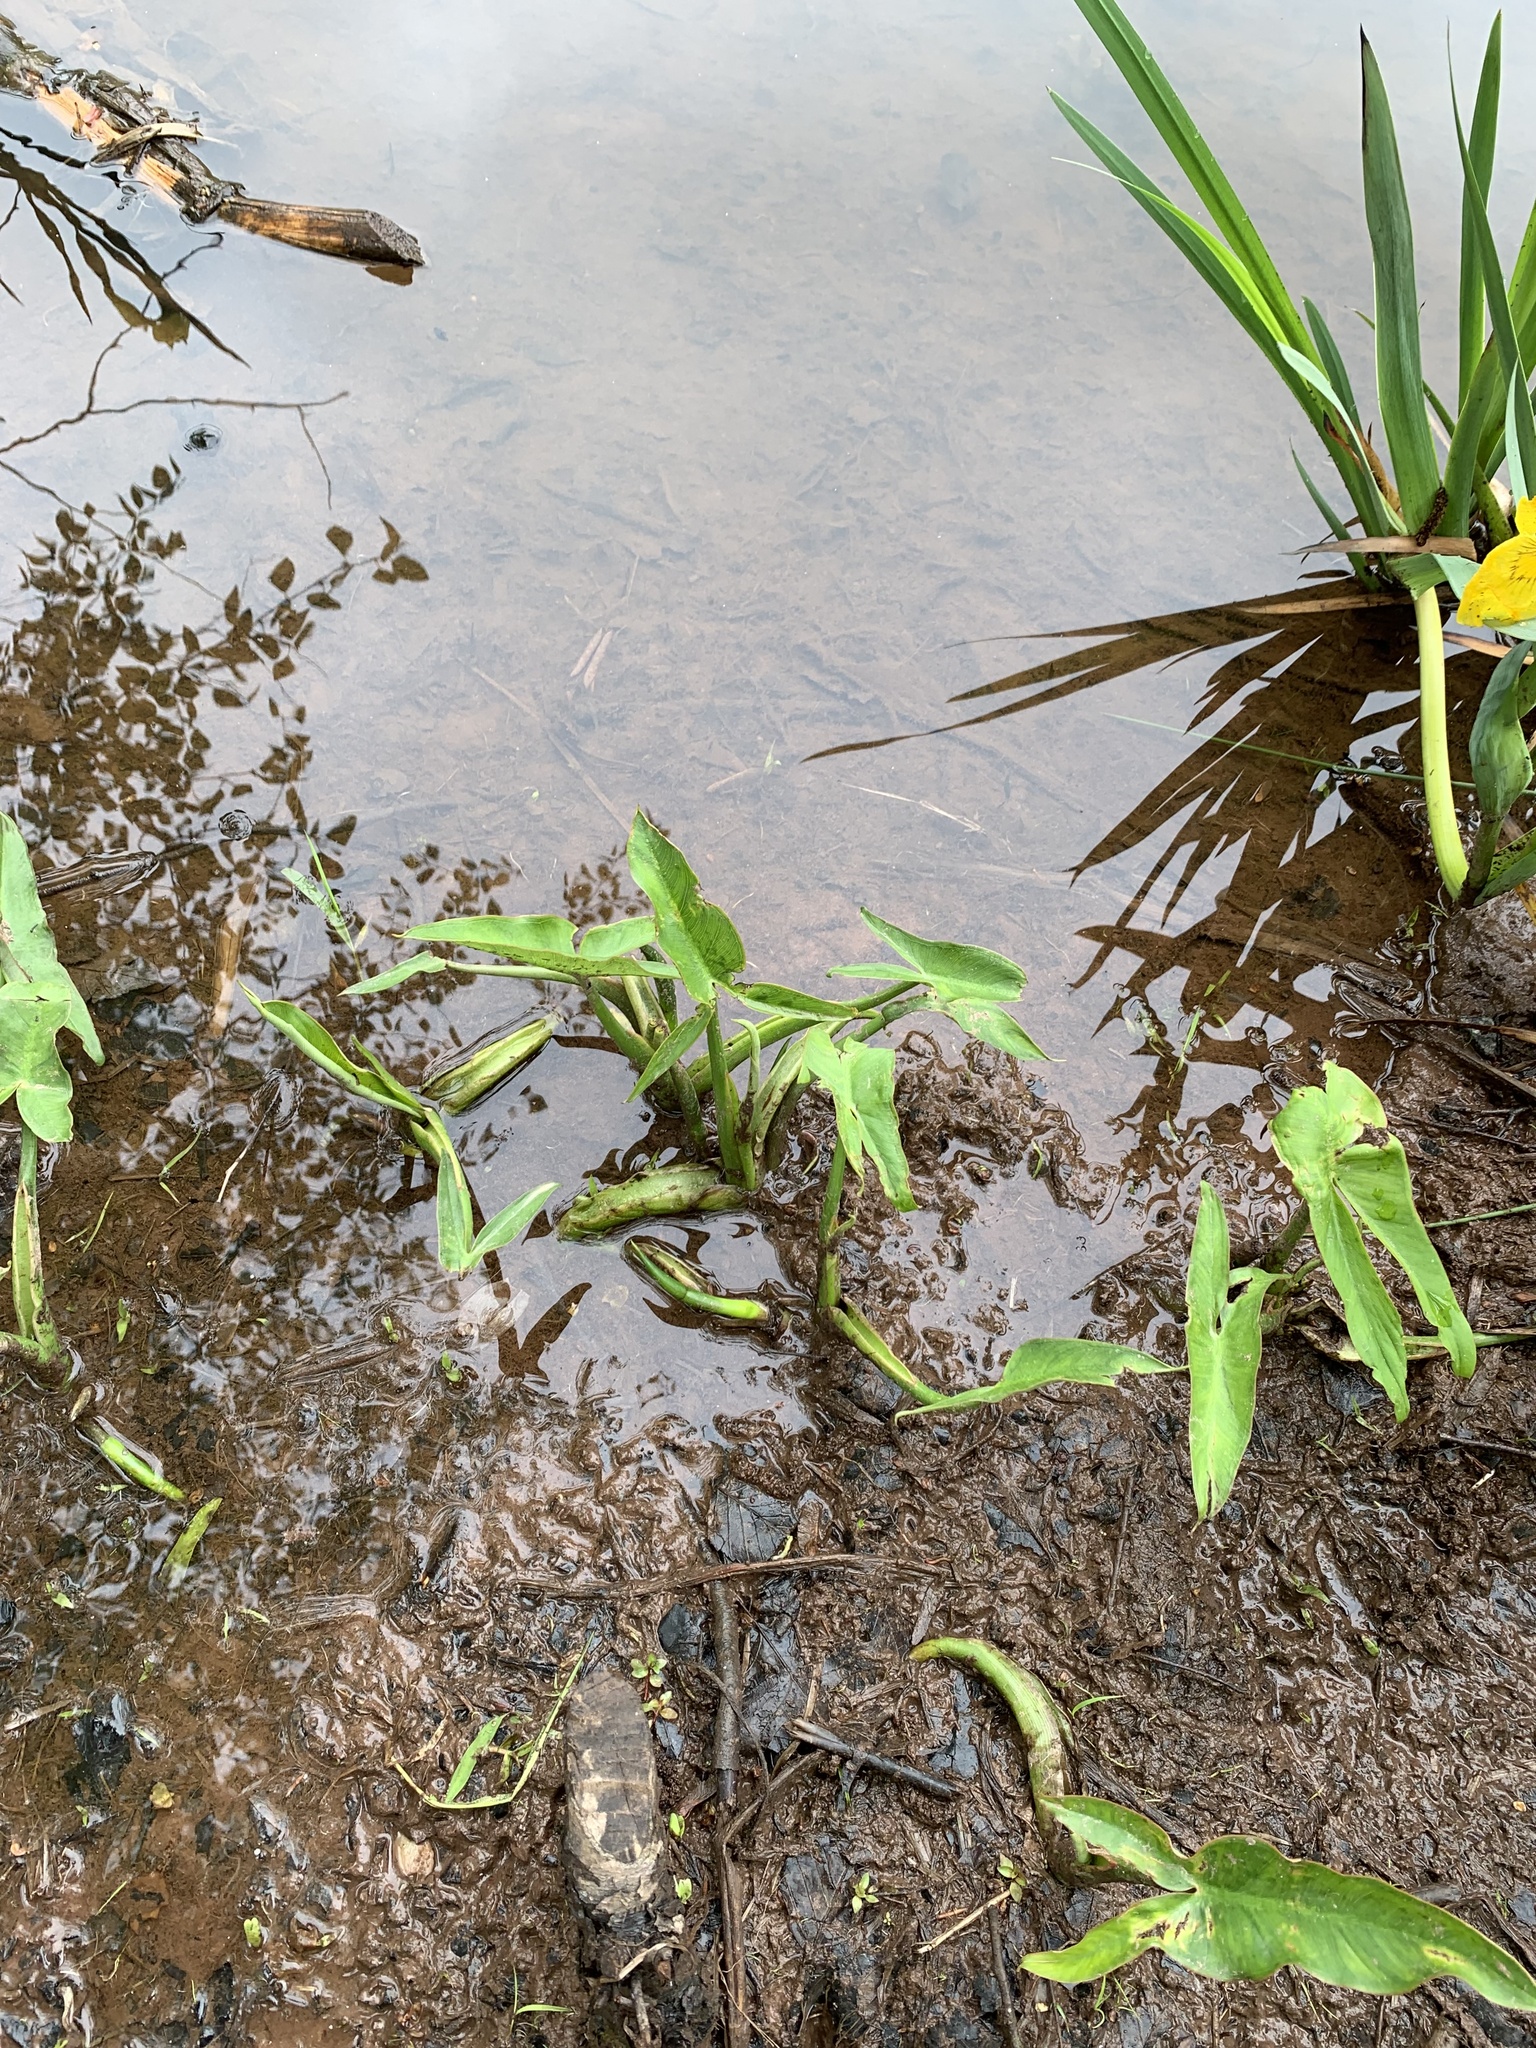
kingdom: Plantae
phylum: Tracheophyta
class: Liliopsida
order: Alismatales
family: Araceae
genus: Peltandra
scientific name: Peltandra virginica
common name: Arrow arum
